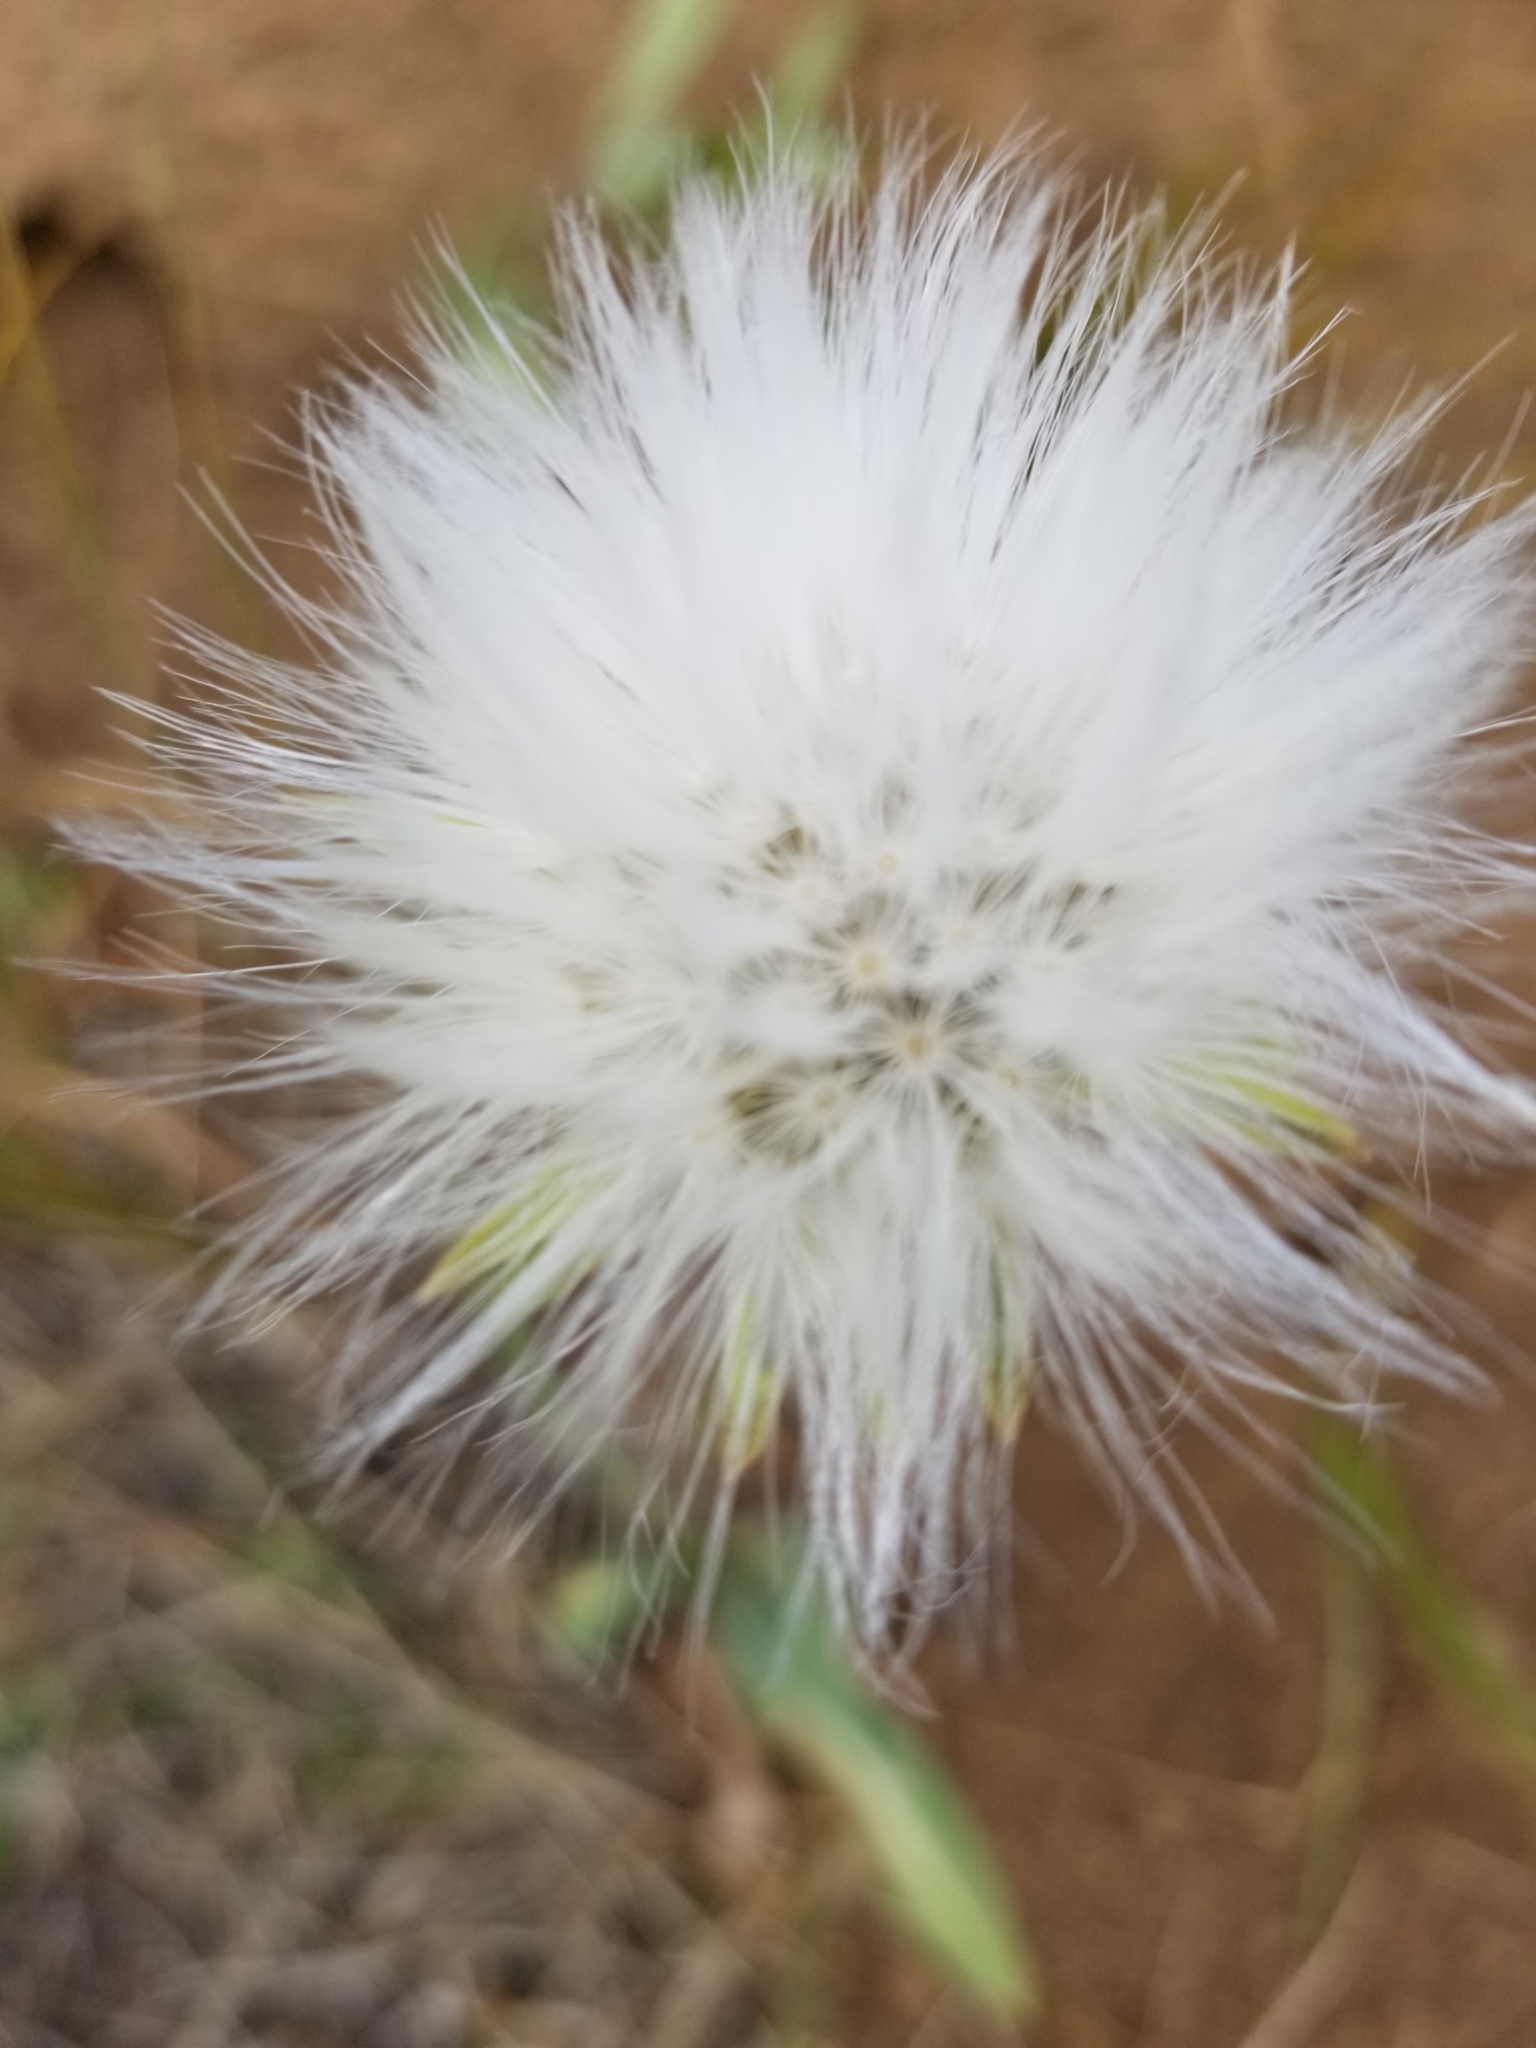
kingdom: Plantae
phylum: Tracheophyta
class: Magnoliopsida
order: Asterales
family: Asteraceae
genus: Agoseris
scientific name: Agoseris glauca
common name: Prairie agoseris
